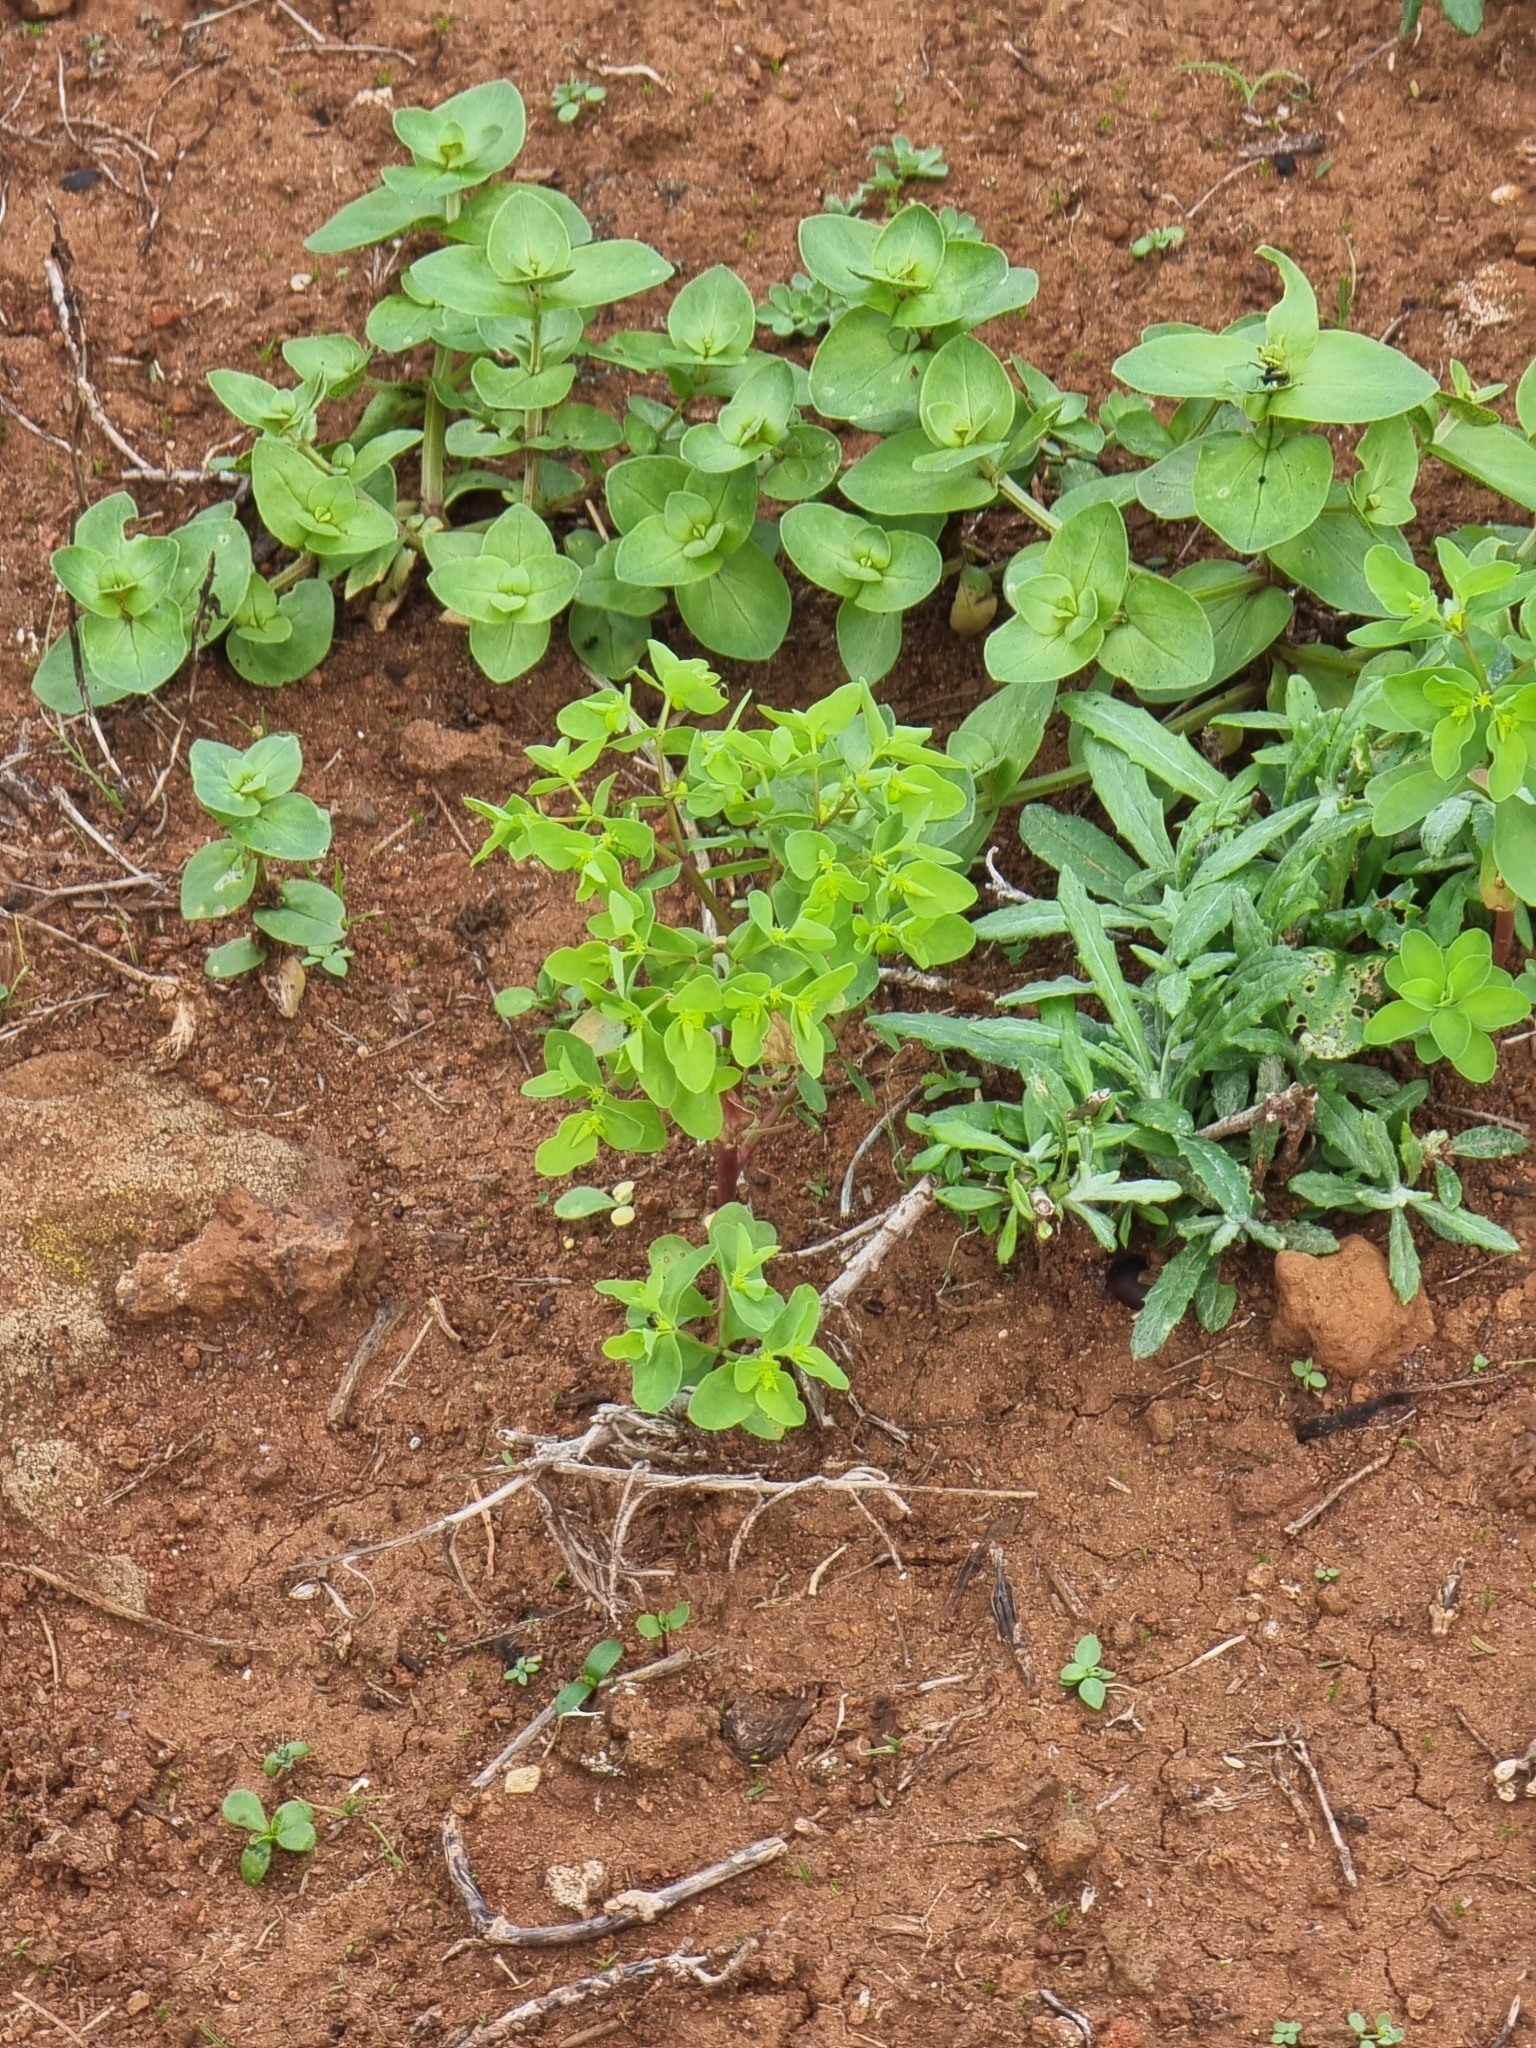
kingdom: Plantae
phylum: Tracheophyta
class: Magnoliopsida
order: Malpighiales
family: Euphorbiaceae
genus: Euphorbia
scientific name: Euphorbia peplus
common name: Petty spurge
